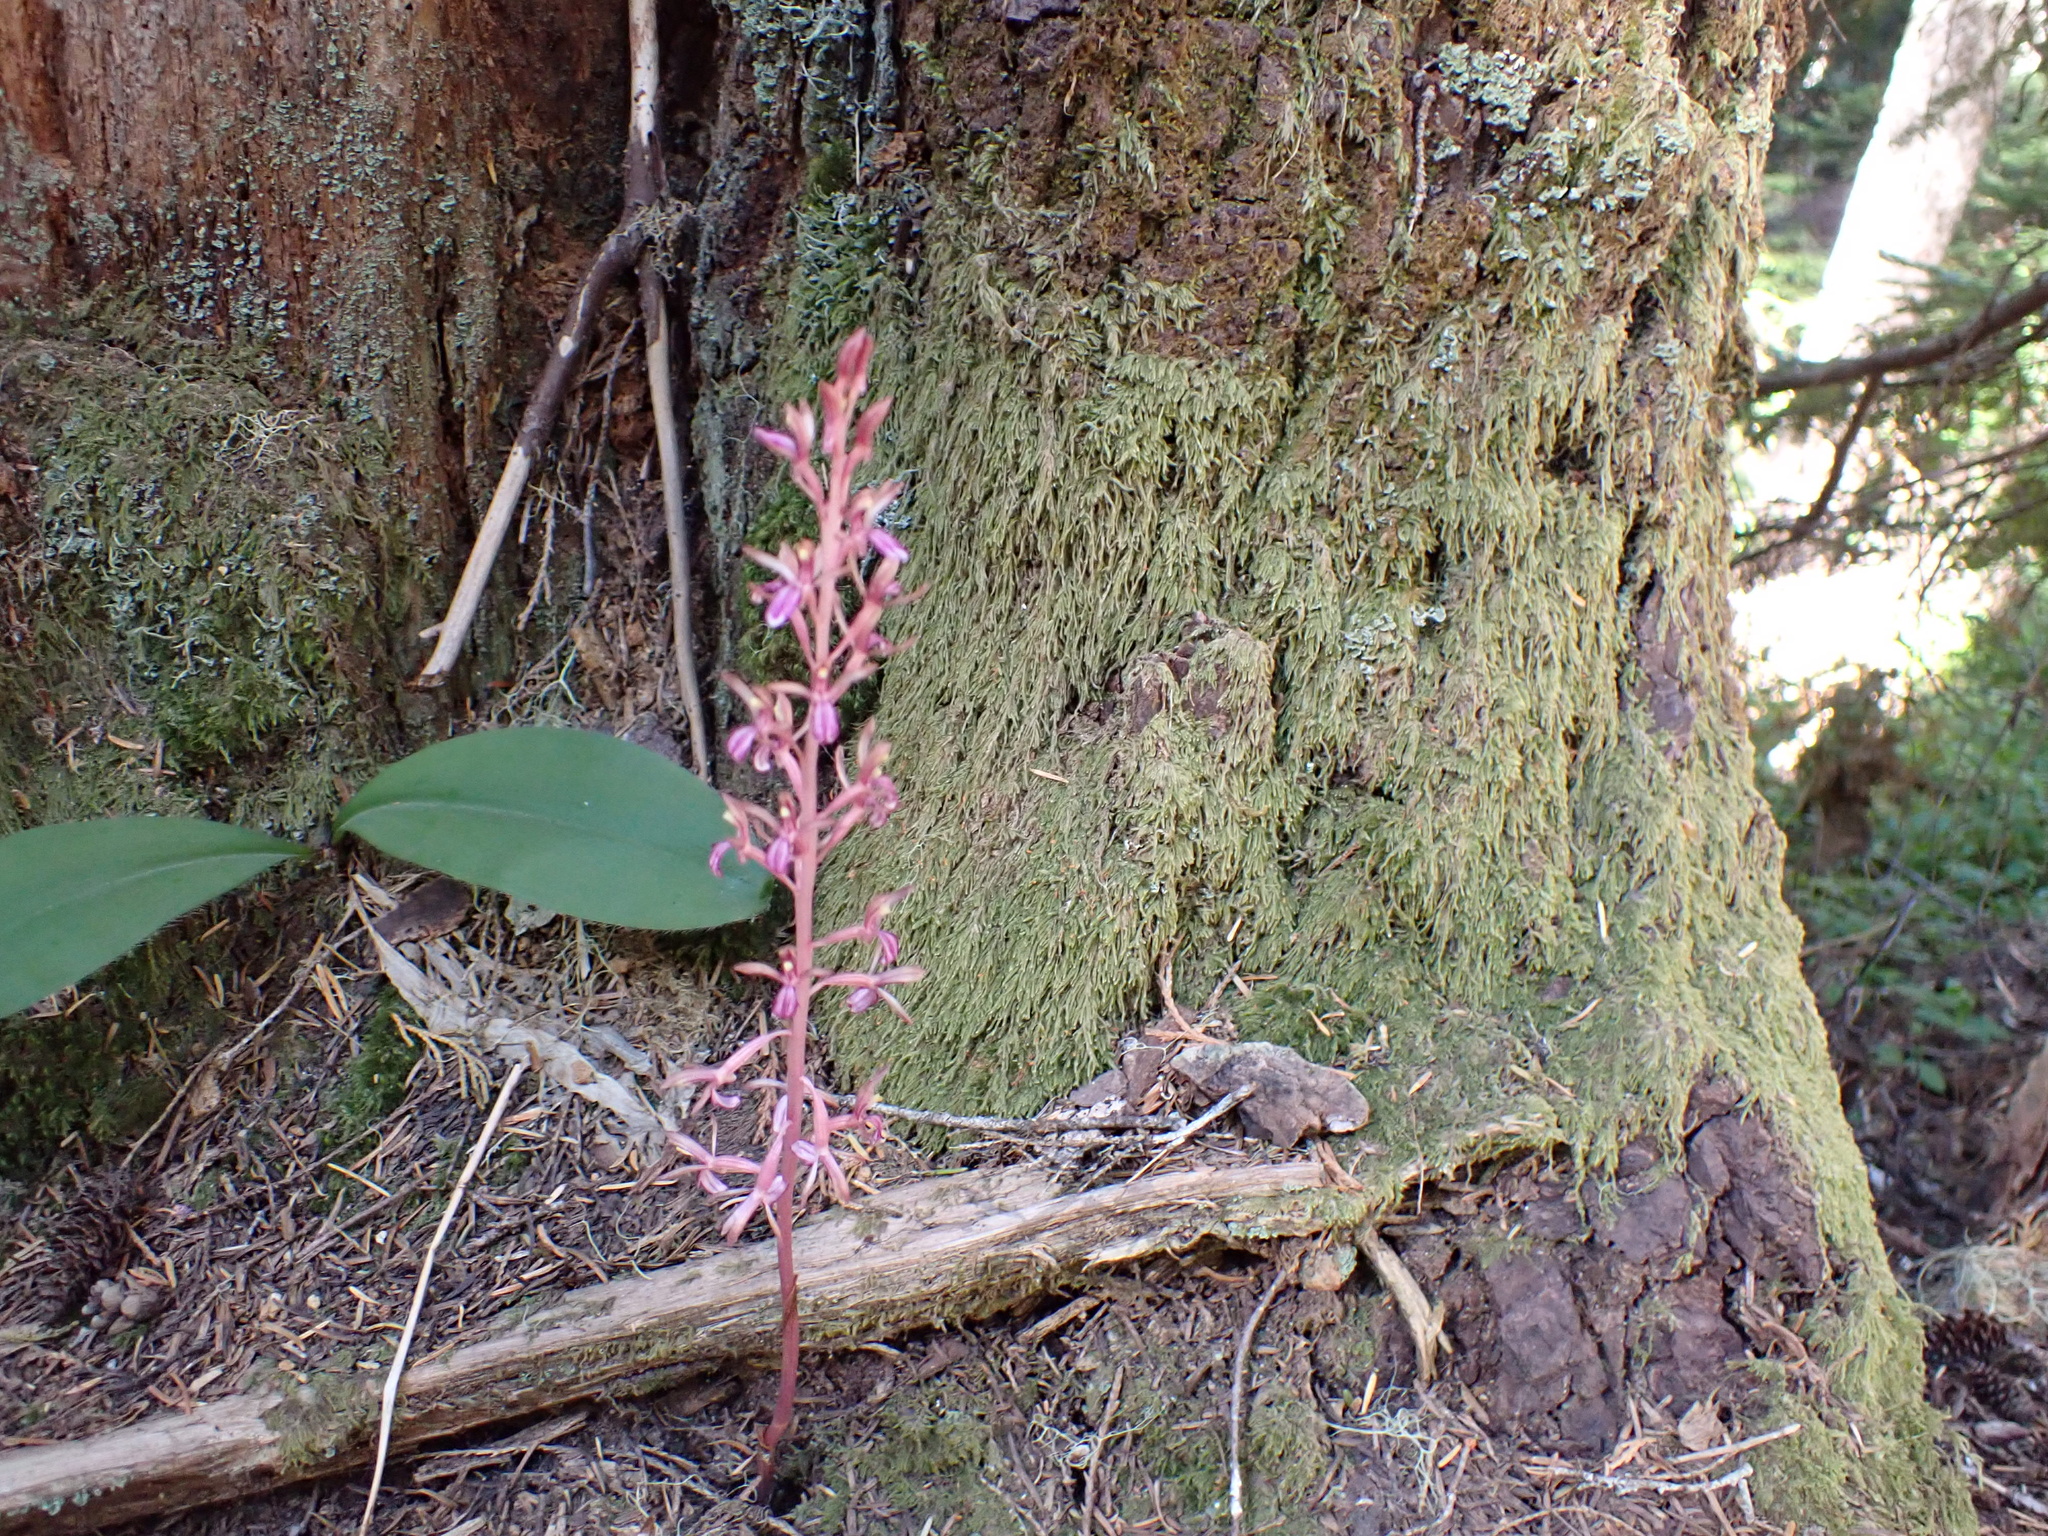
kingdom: Plantae
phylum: Tracheophyta
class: Liliopsida
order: Asparagales
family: Orchidaceae
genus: Corallorhiza
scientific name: Corallorhiza mertensiana
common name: Pacific coralroot
